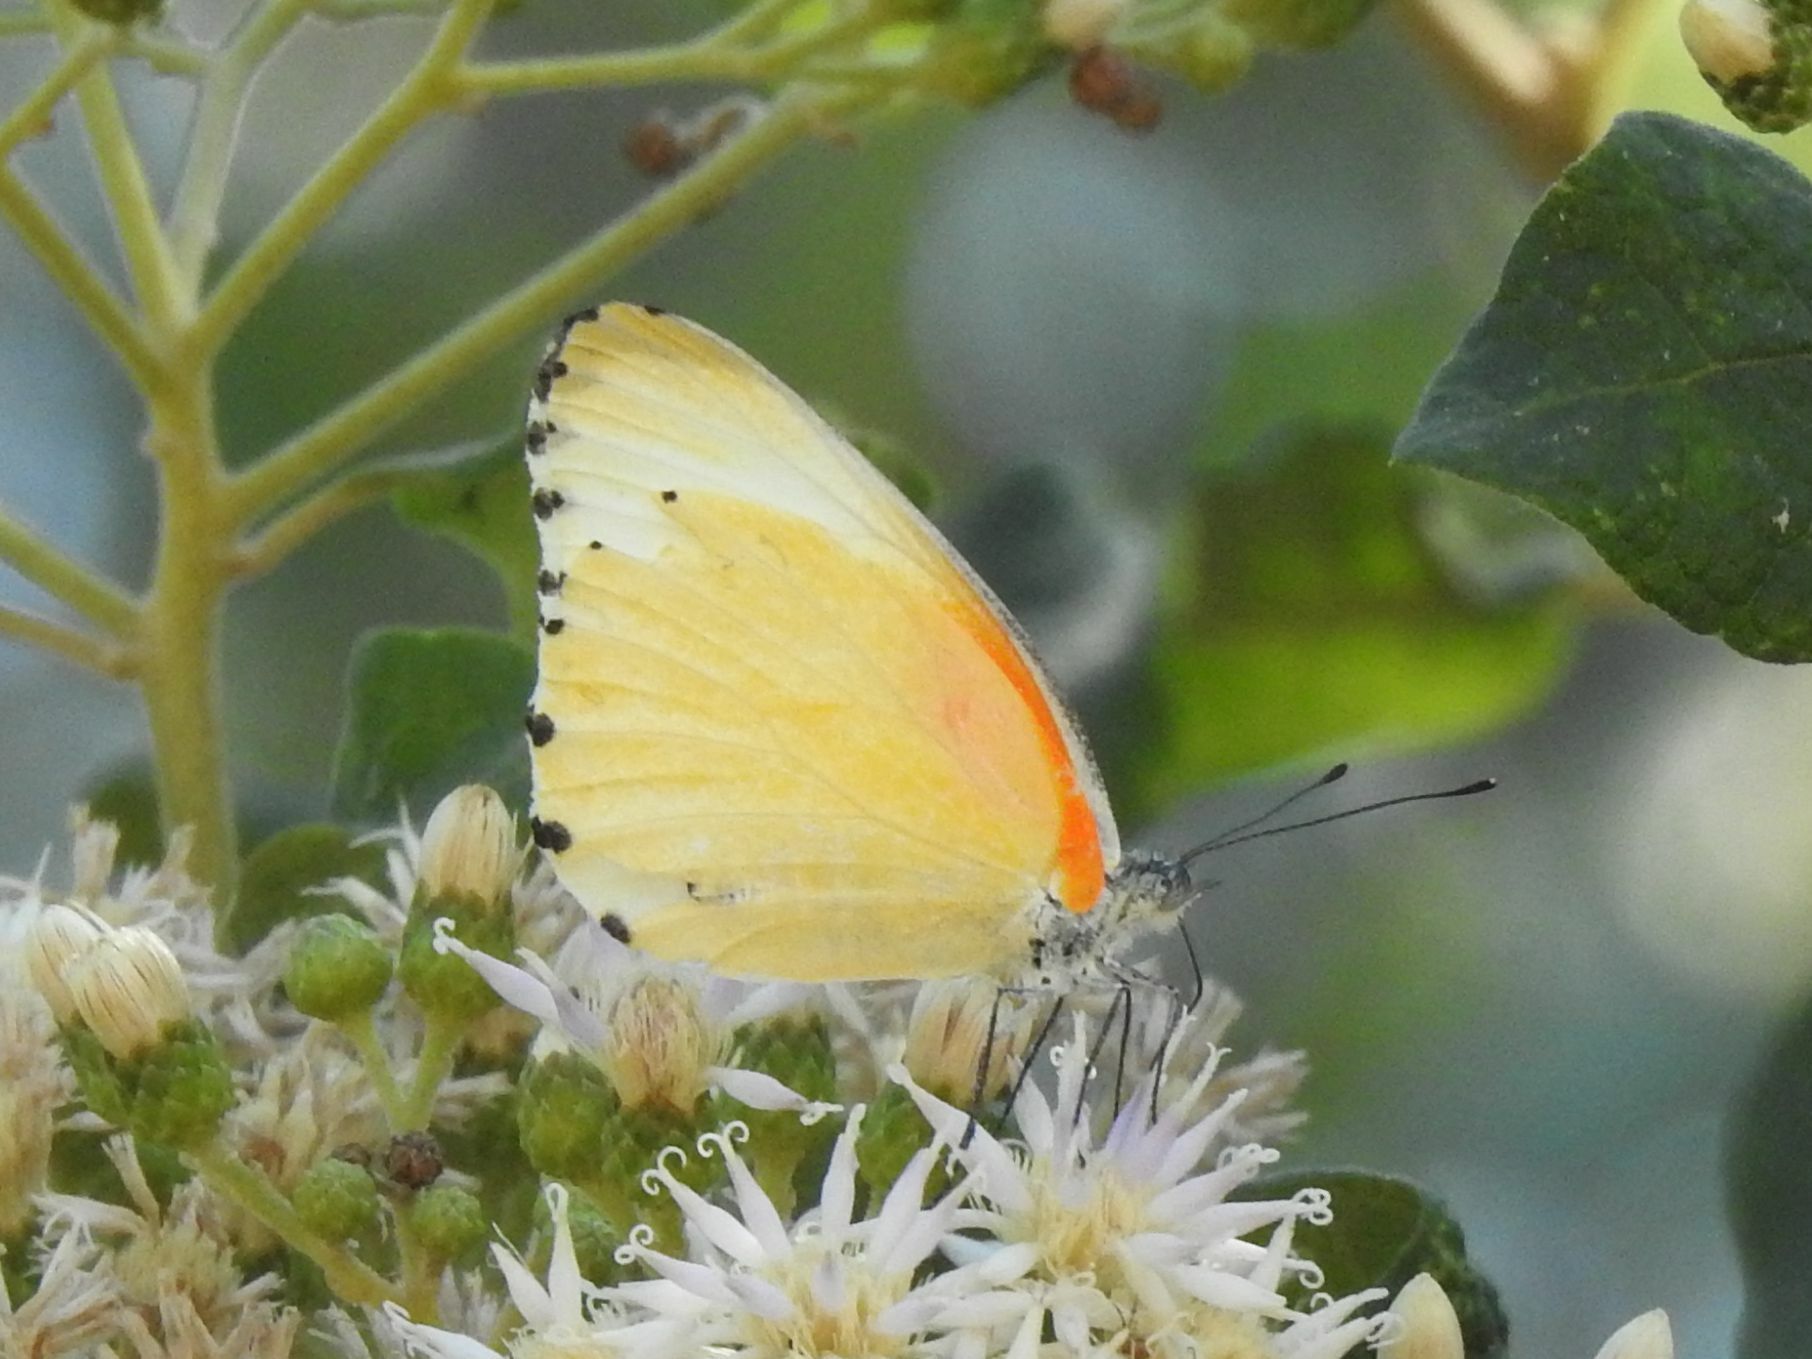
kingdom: Animalia
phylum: Arthropoda
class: Insecta
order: Lepidoptera
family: Pieridae
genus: Mylothris
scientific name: Mylothris agathina
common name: Eastern dotted border
